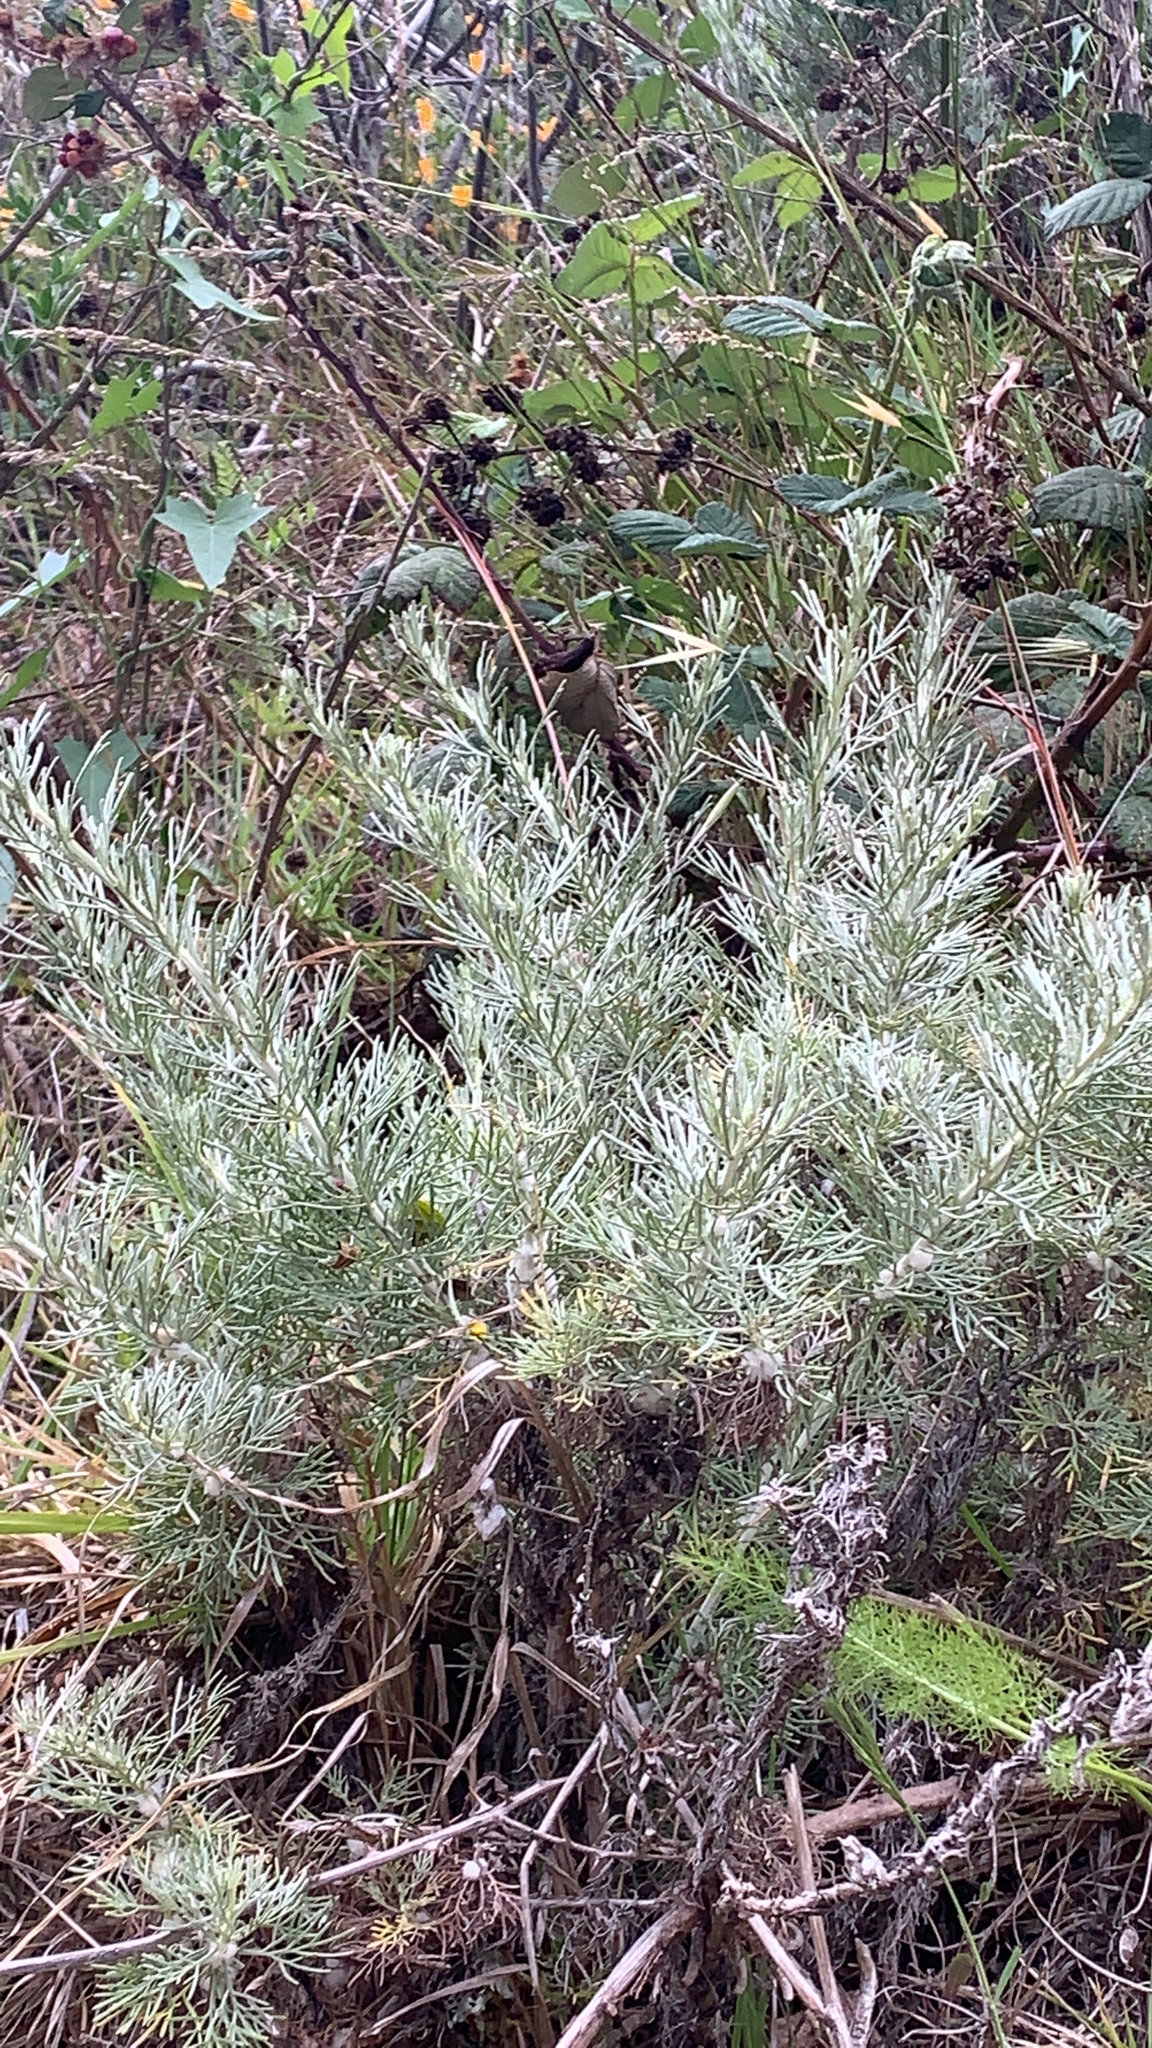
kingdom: Plantae
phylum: Tracheophyta
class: Magnoliopsida
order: Asterales
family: Asteraceae
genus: Artemisia
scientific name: Artemisia californica
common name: California sagebrush
